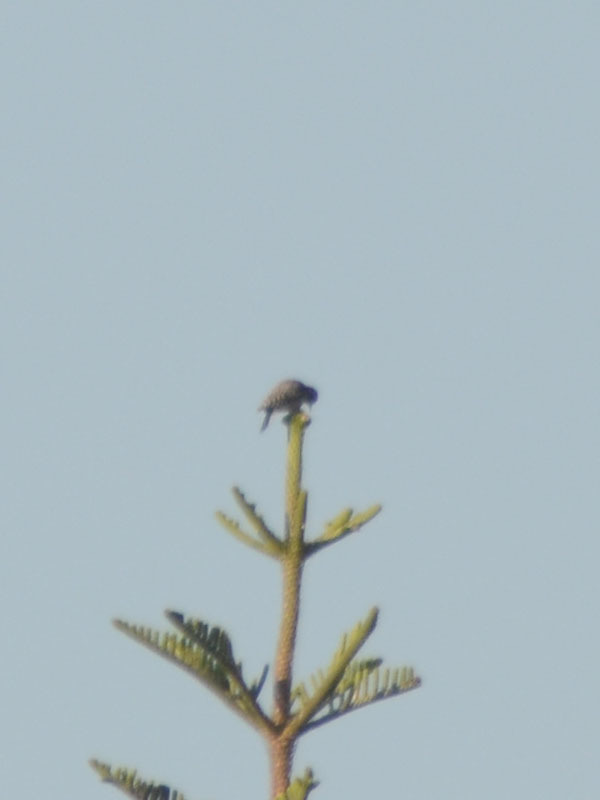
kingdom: Animalia
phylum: Chordata
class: Aves
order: Piciformes
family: Picidae
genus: Dryobates
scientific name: Dryobates scalaris
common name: Ladder-backed woodpecker
